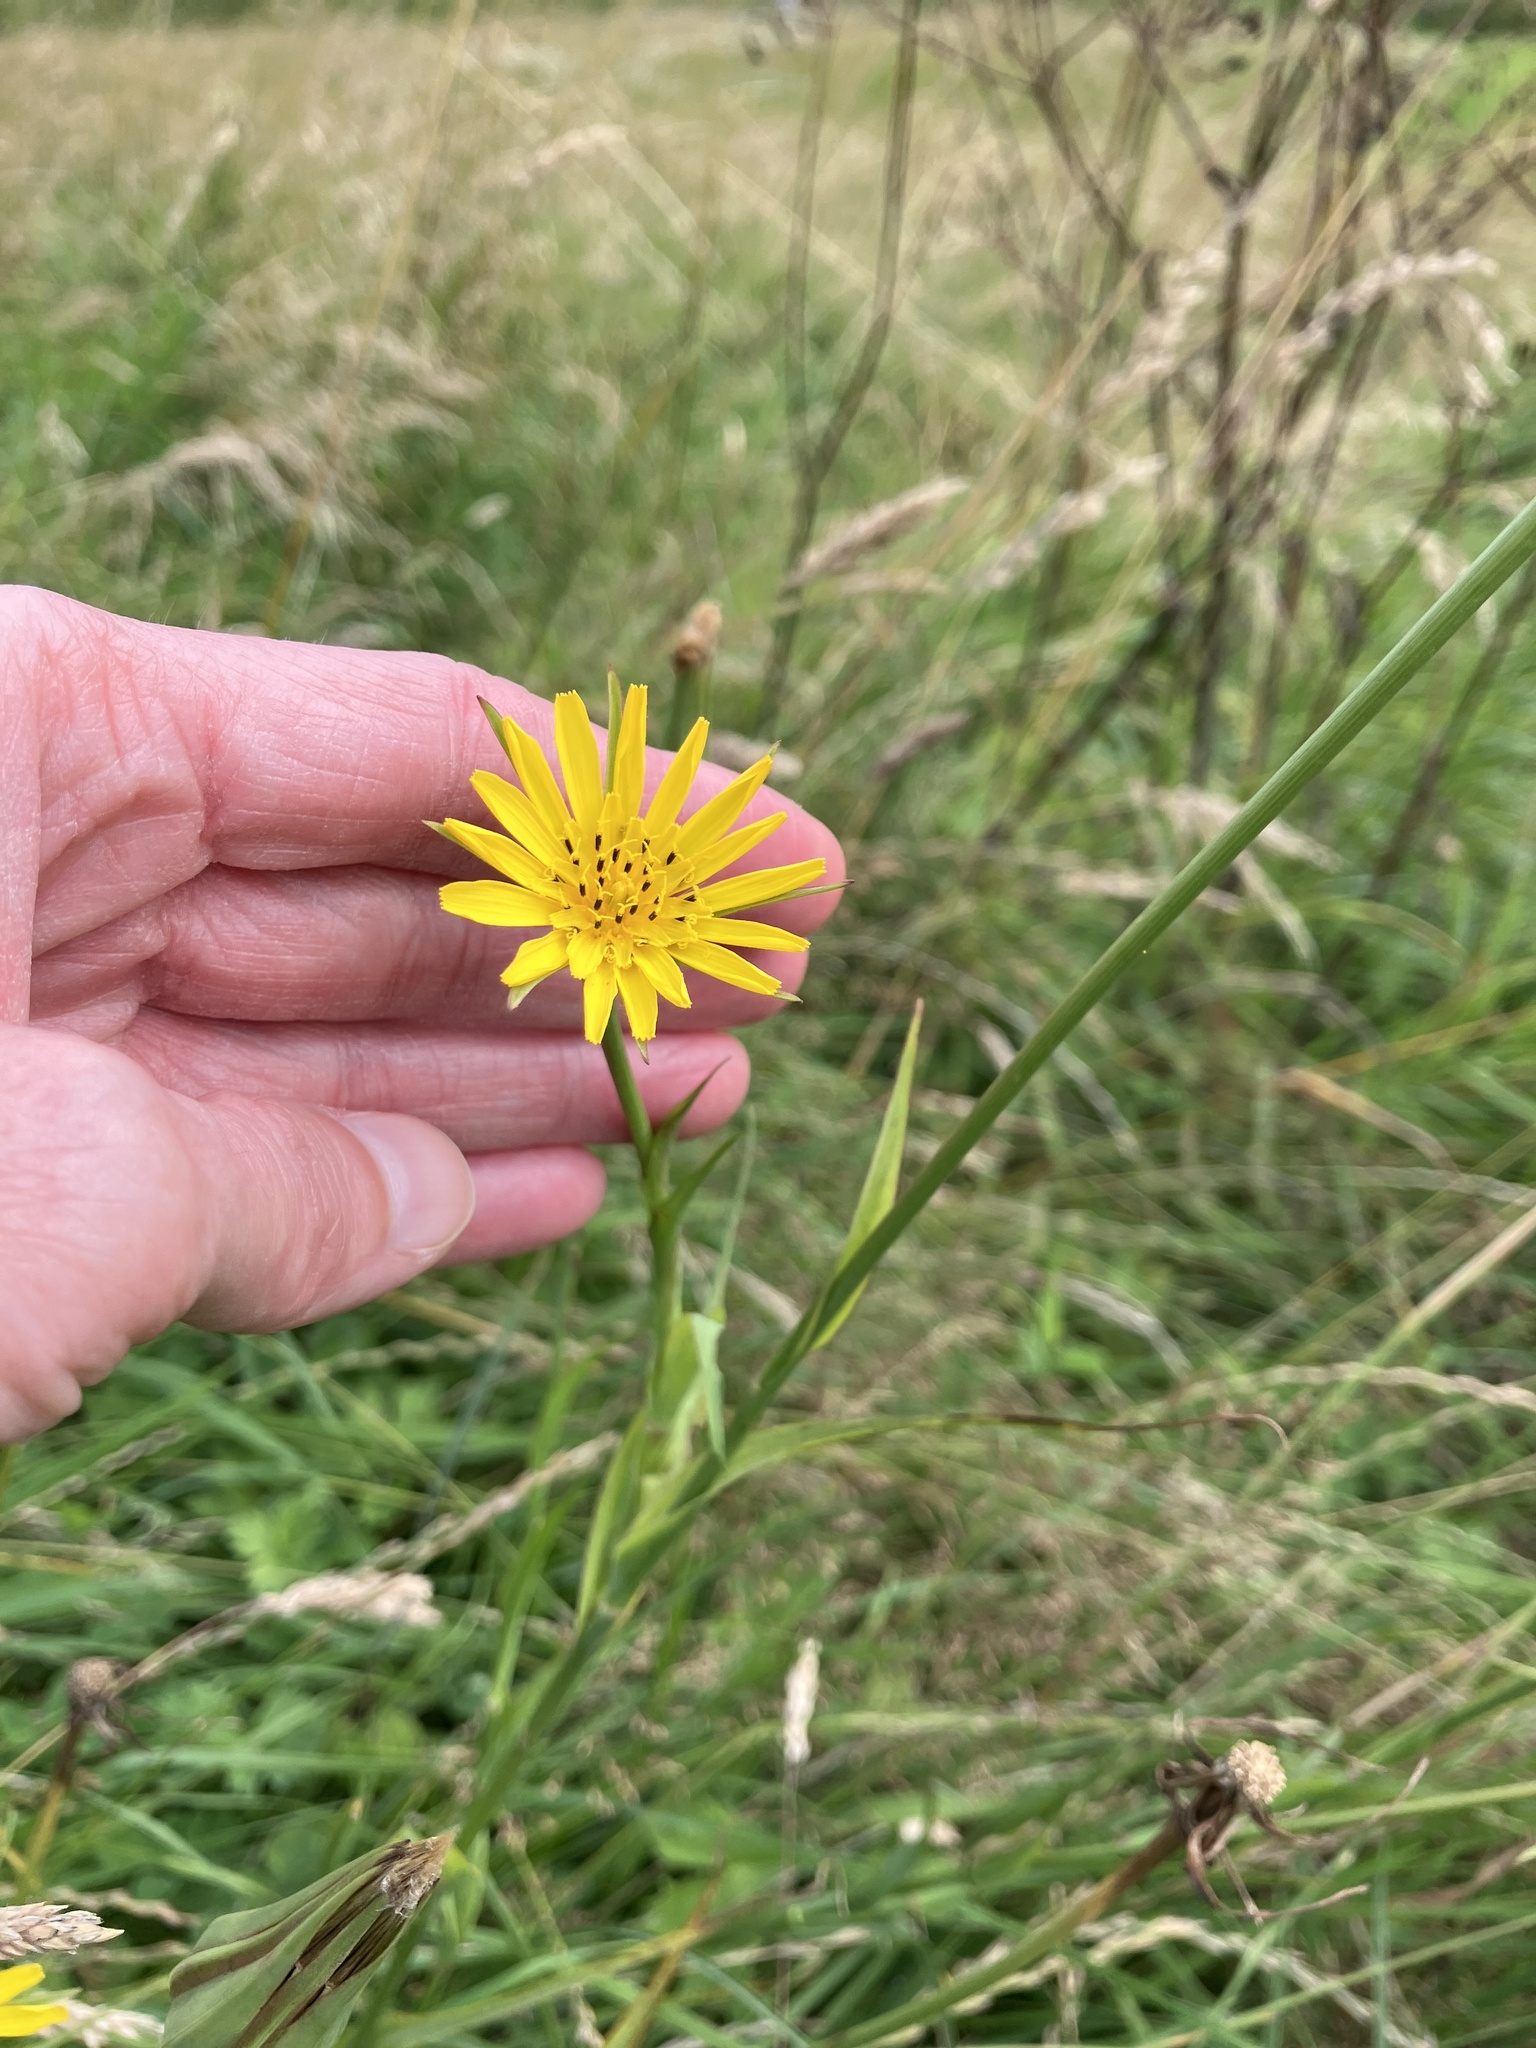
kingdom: Plantae
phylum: Tracheophyta
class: Magnoliopsida
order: Asterales
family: Asteraceae
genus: Tragopogon
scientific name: Tragopogon pratensis
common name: Goat's-beard
